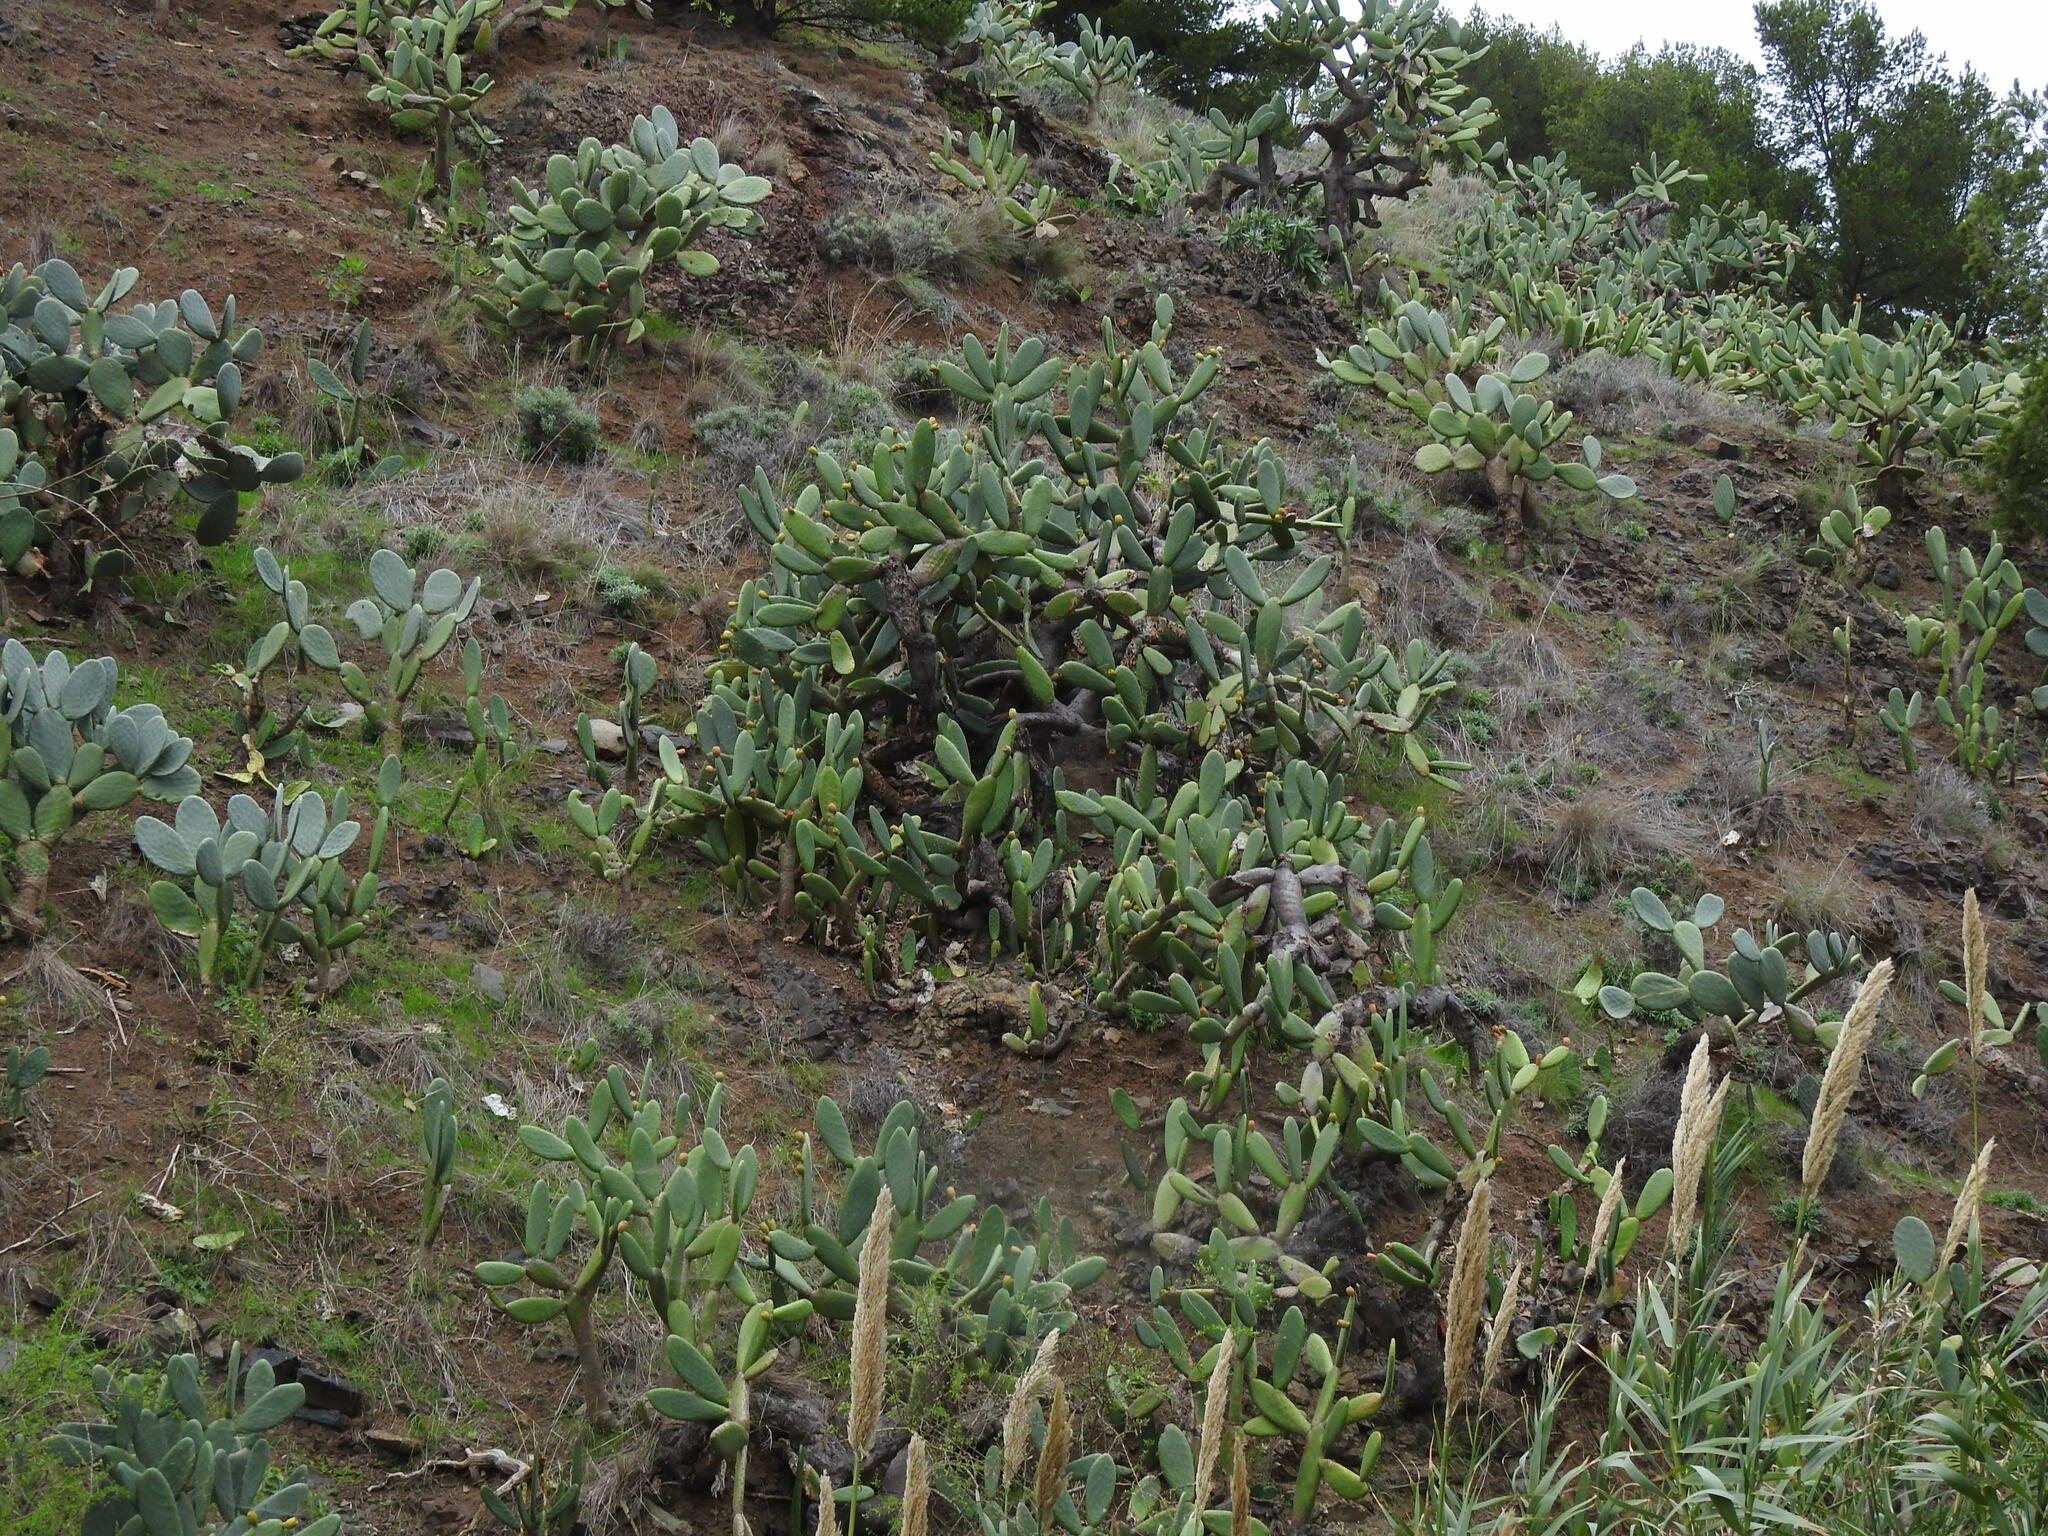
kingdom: Plantae
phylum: Tracheophyta
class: Magnoliopsida
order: Caryophyllales
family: Cactaceae
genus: Opuntia
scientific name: Opuntia ficus-indica
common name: Barbary fig
